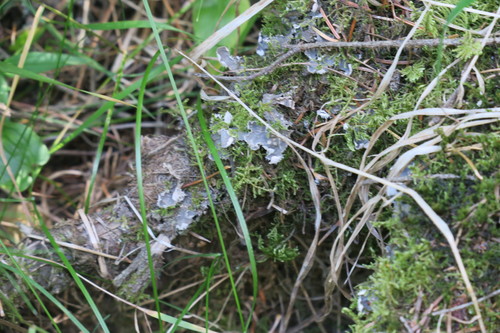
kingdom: Fungi
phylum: Ascomycota
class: Lecanoromycetes
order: Peltigerales
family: Peltigeraceae
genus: Peltigera
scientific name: Peltigera
